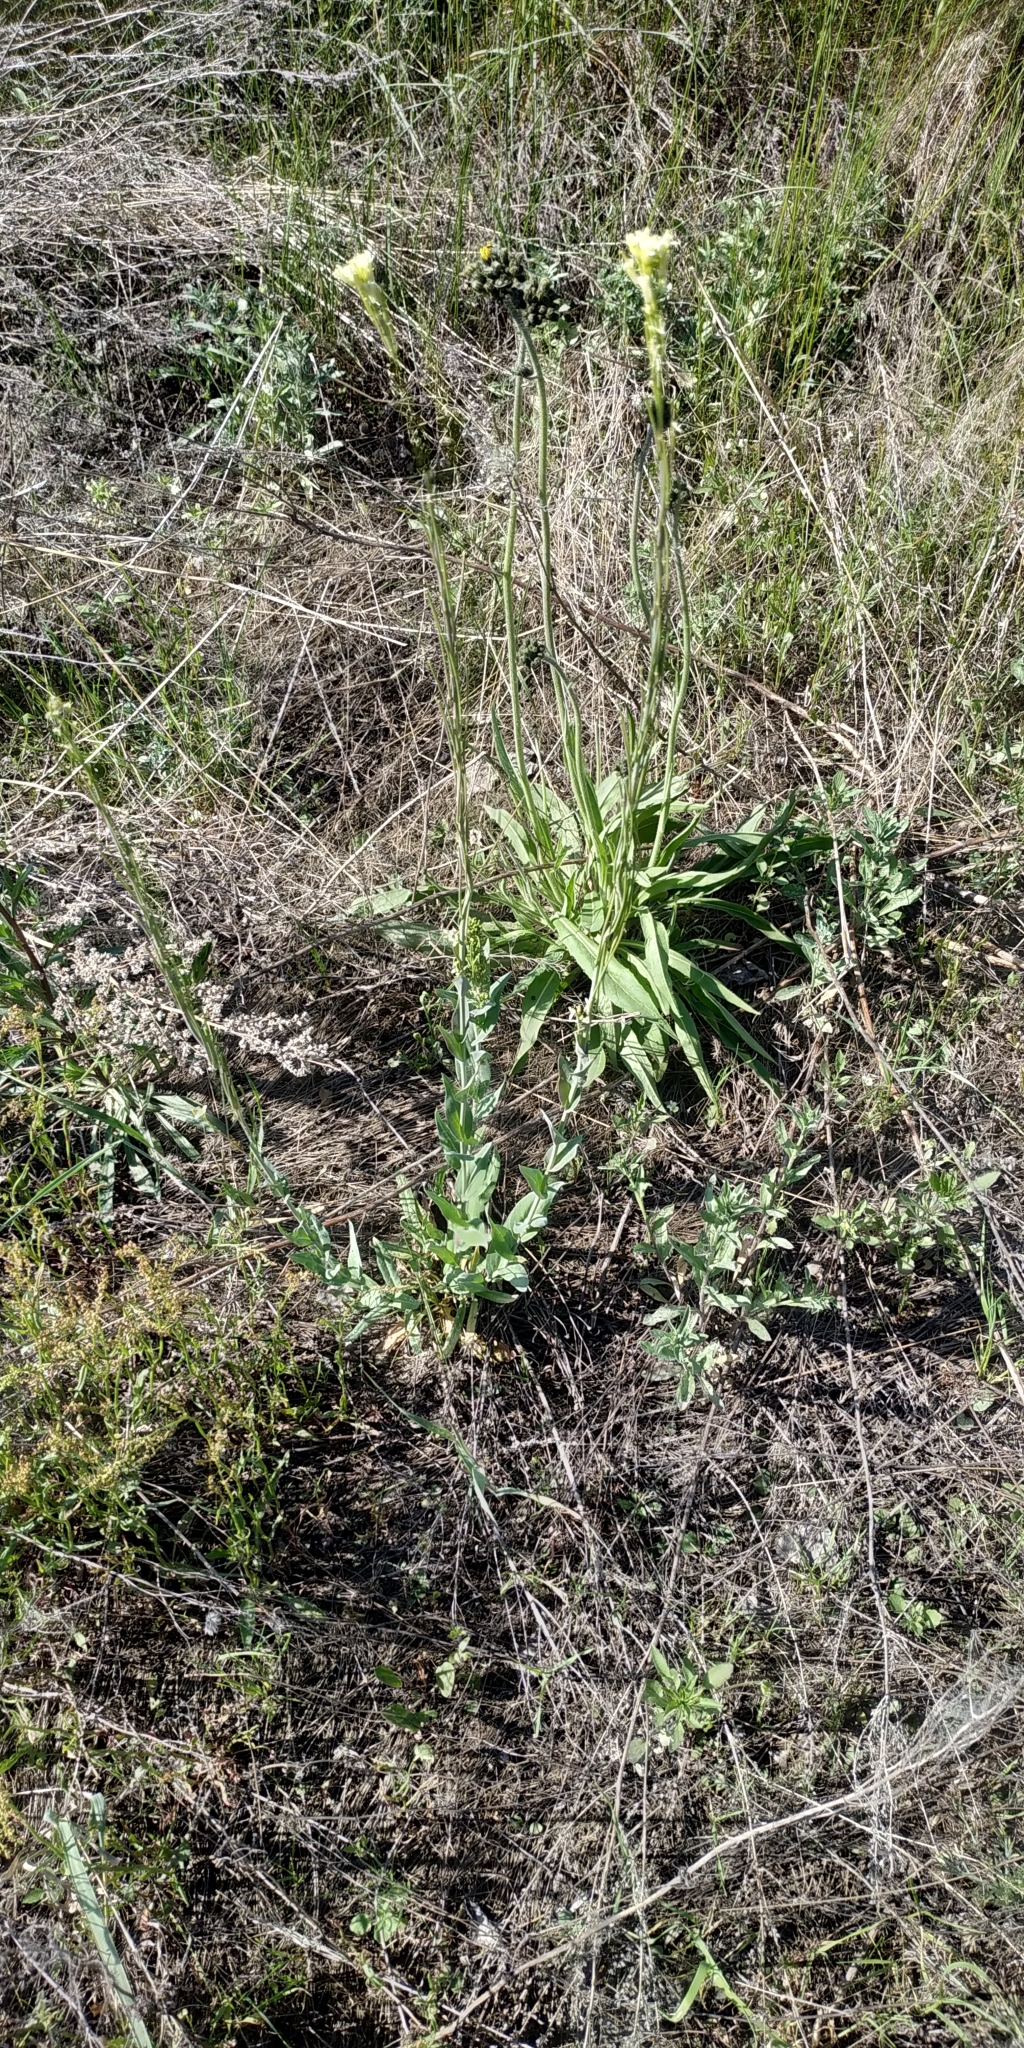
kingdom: Plantae
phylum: Tracheophyta
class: Magnoliopsida
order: Brassicales
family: Brassicaceae
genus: Turritis
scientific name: Turritis glabra
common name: Tower rockcress
